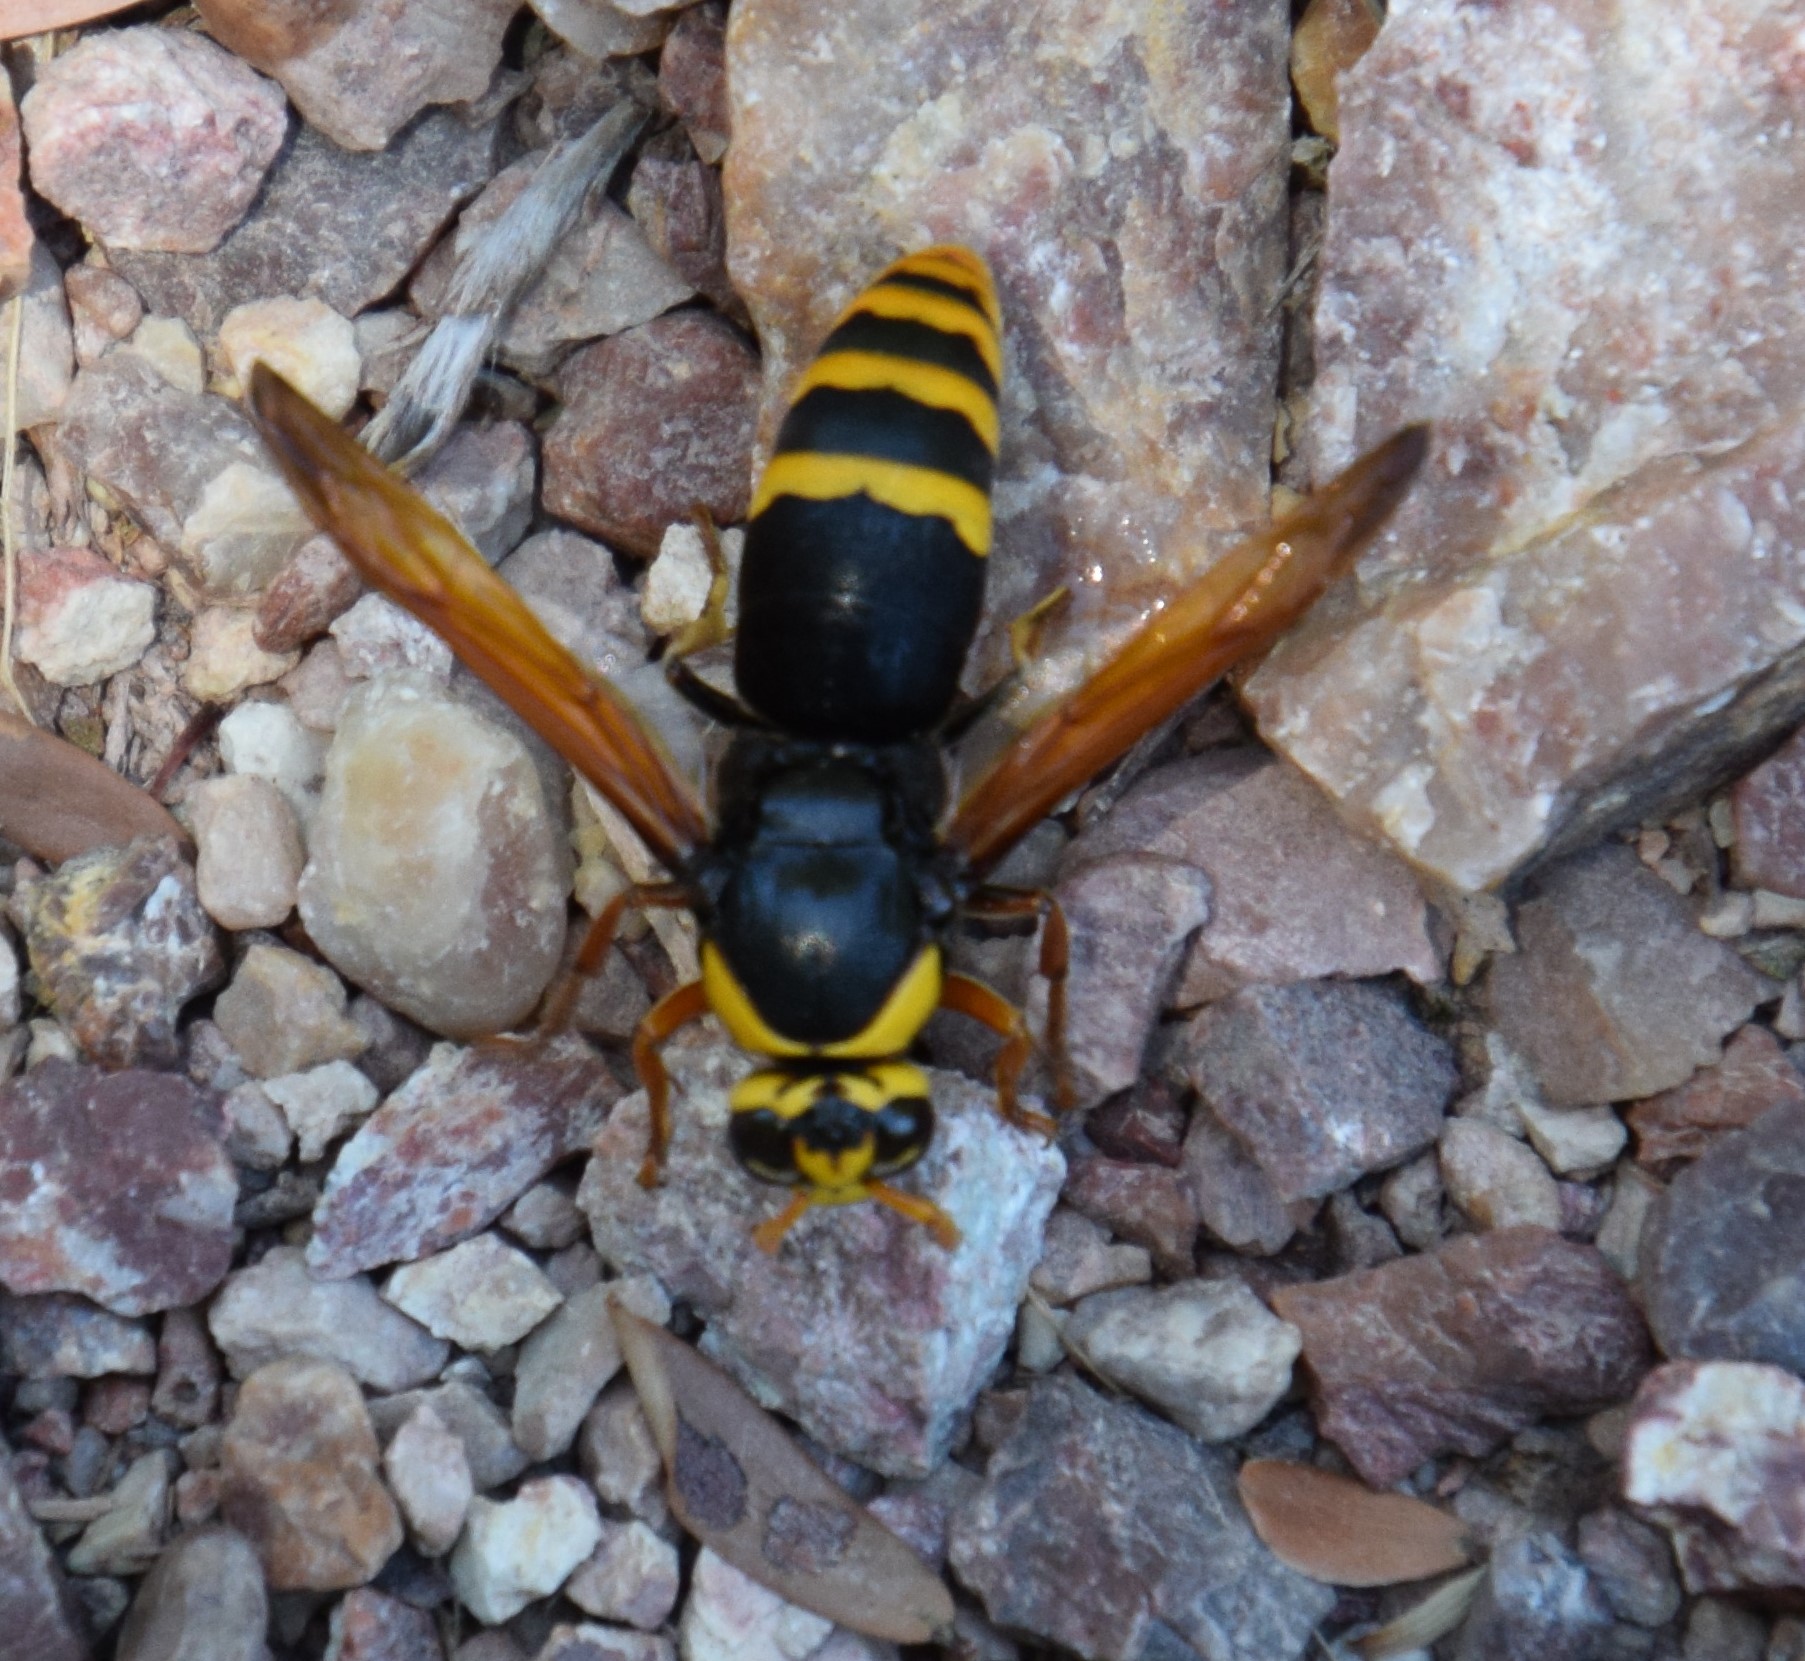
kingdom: Animalia
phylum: Arthropoda
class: Insecta
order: Hymenoptera
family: Eumenidae
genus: Rhynchium
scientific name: Rhynchium superbum
